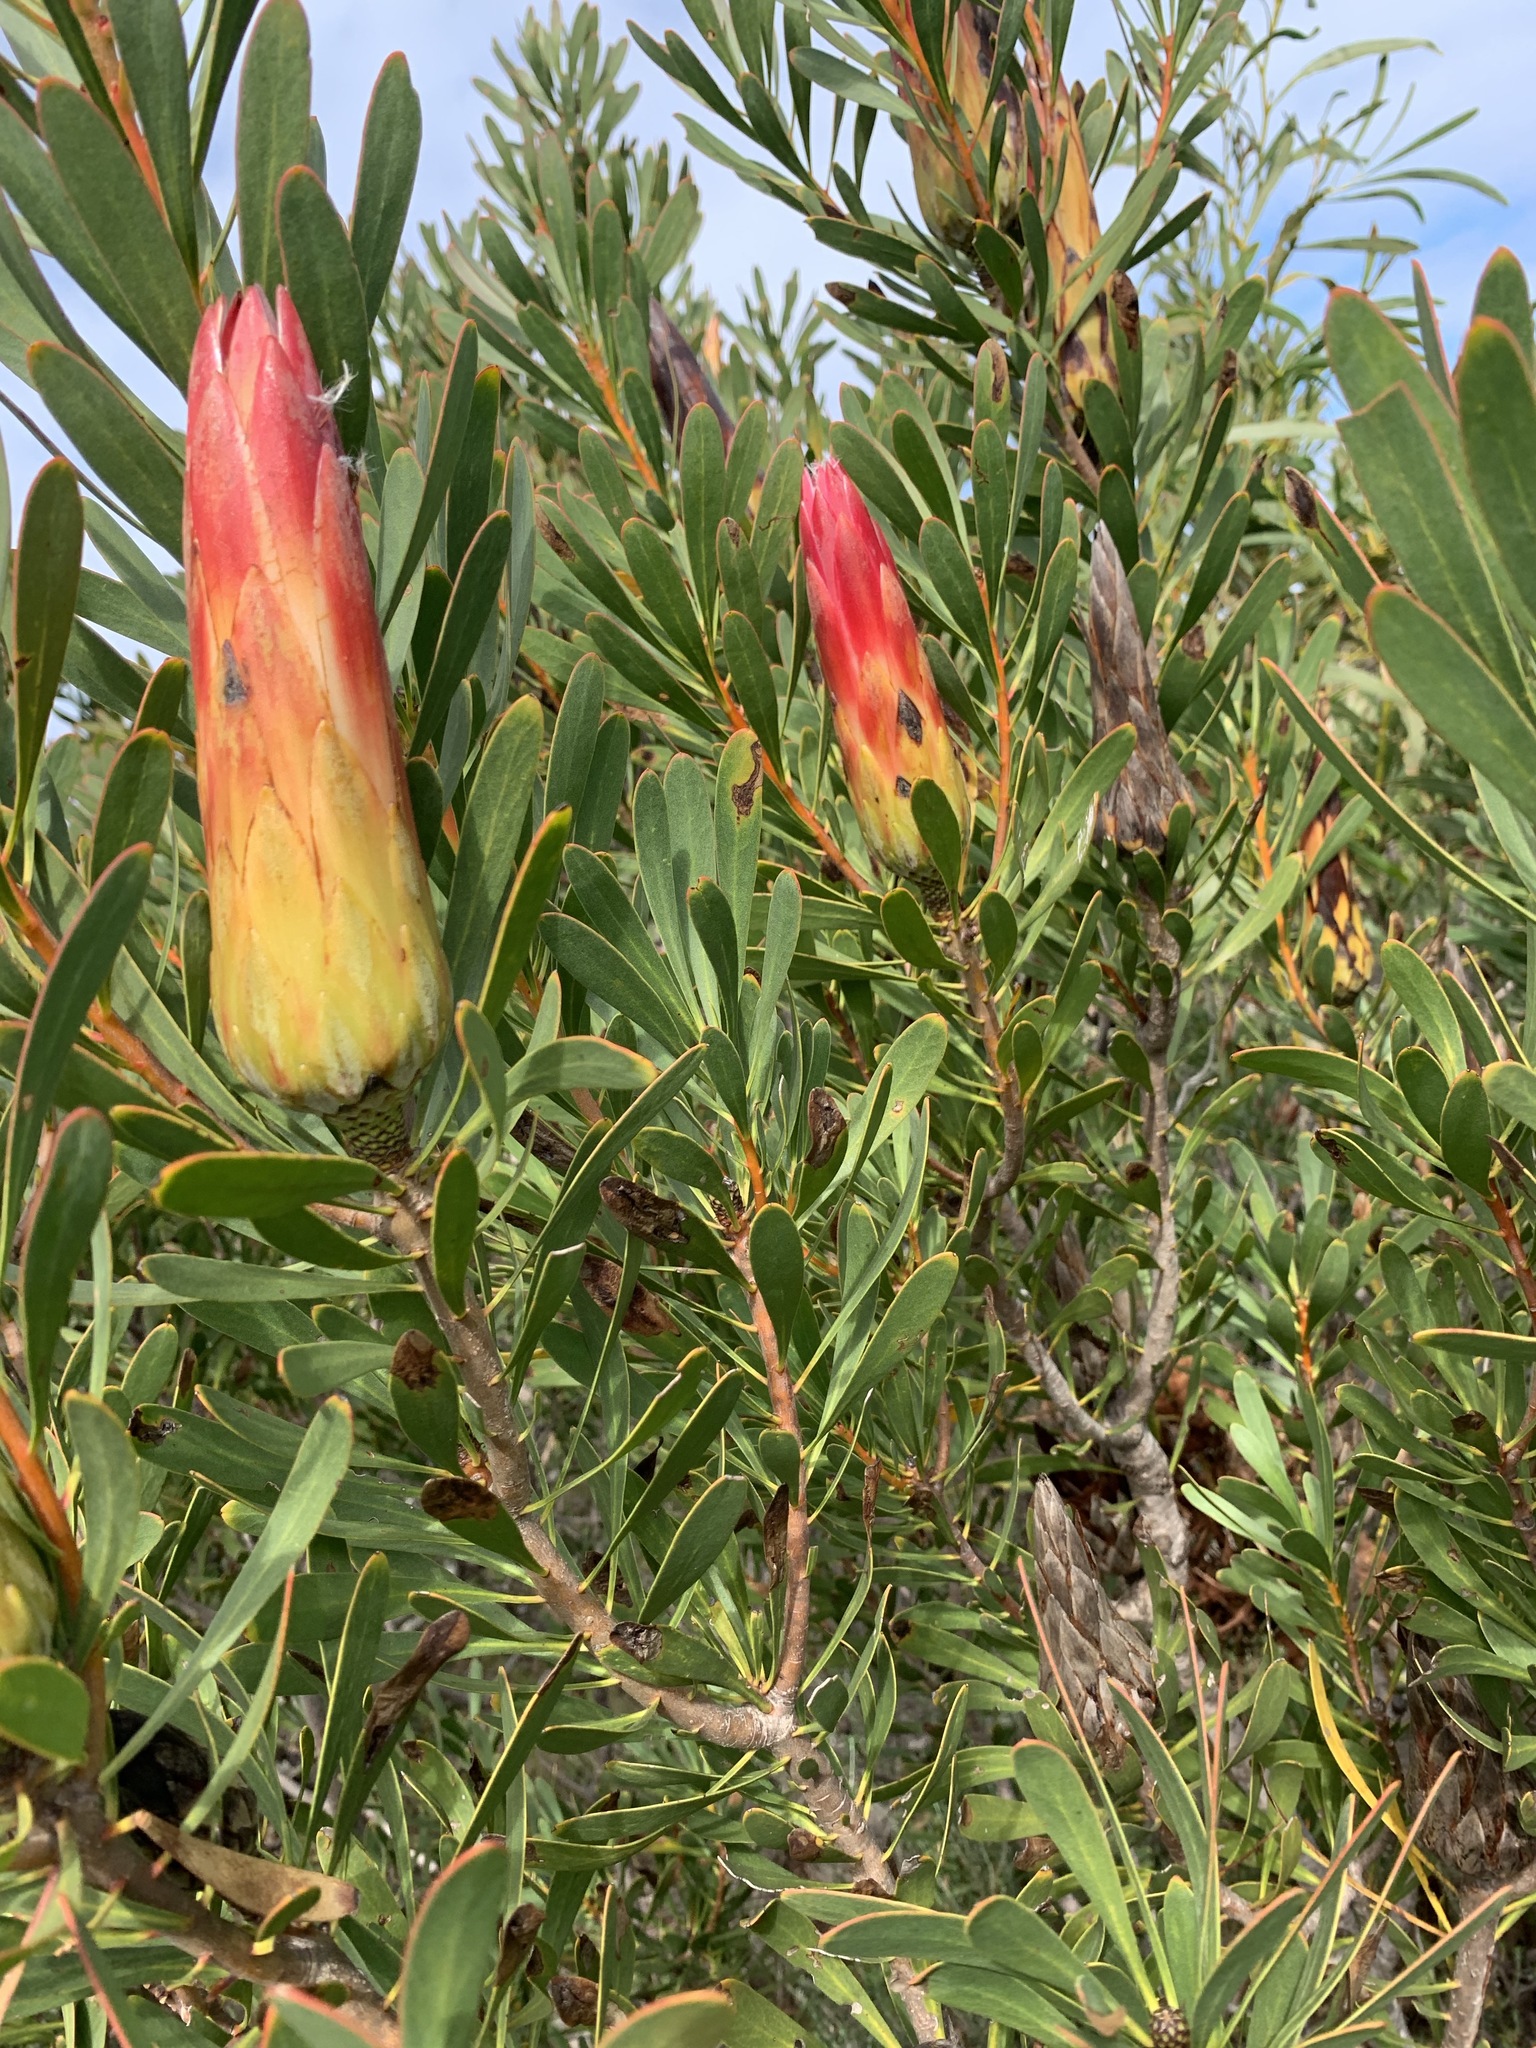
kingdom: Plantae
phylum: Tracheophyta
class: Magnoliopsida
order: Proteales
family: Proteaceae
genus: Protea
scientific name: Protea repens
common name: Sugarbush
